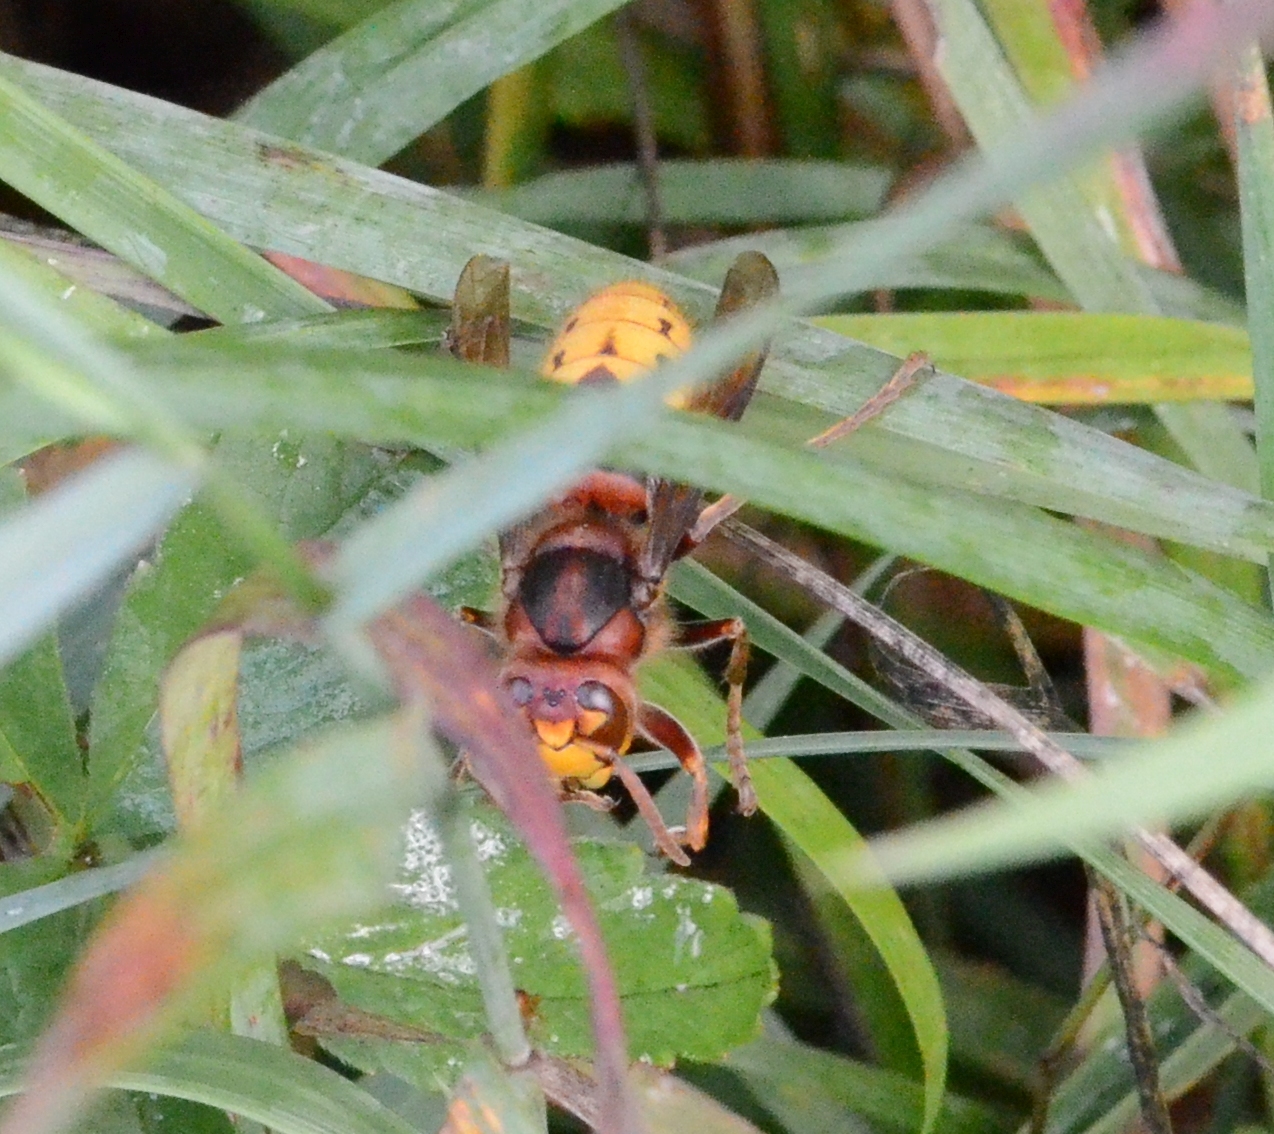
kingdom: Animalia
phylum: Arthropoda
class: Insecta
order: Hymenoptera
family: Vespidae
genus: Vespa
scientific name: Vespa crabro
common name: Hornet
